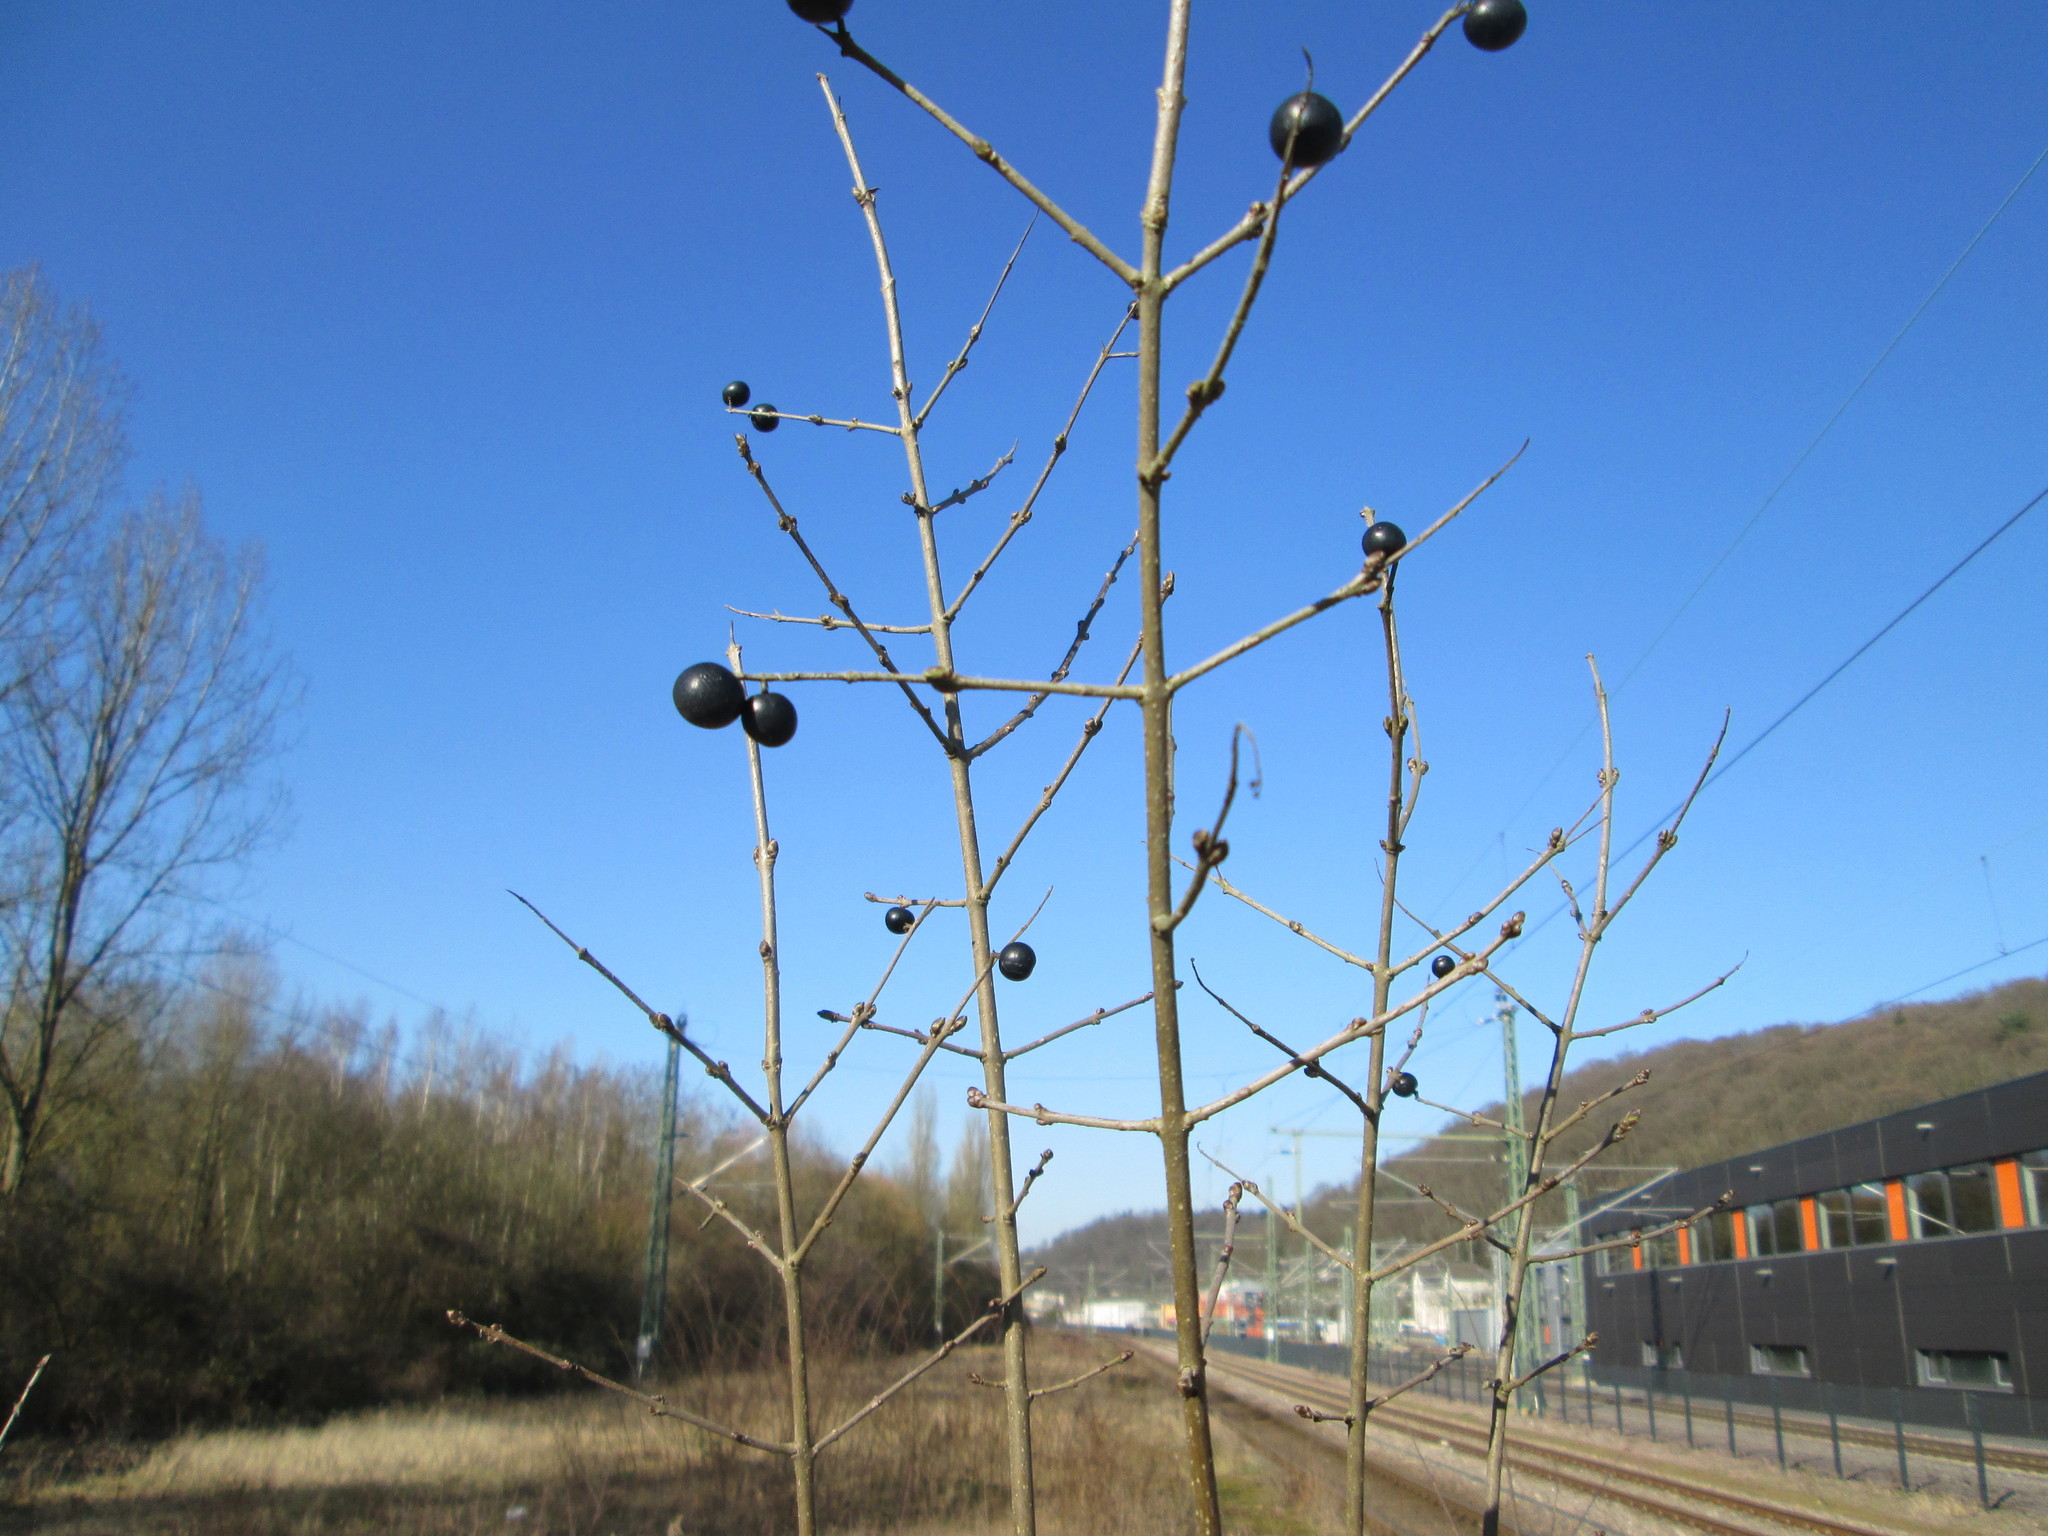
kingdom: Plantae
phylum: Tracheophyta
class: Magnoliopsida
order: Lamiales
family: Oleaceae
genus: Ligustrum
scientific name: Ligustrum vulgare
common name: Wild privet
